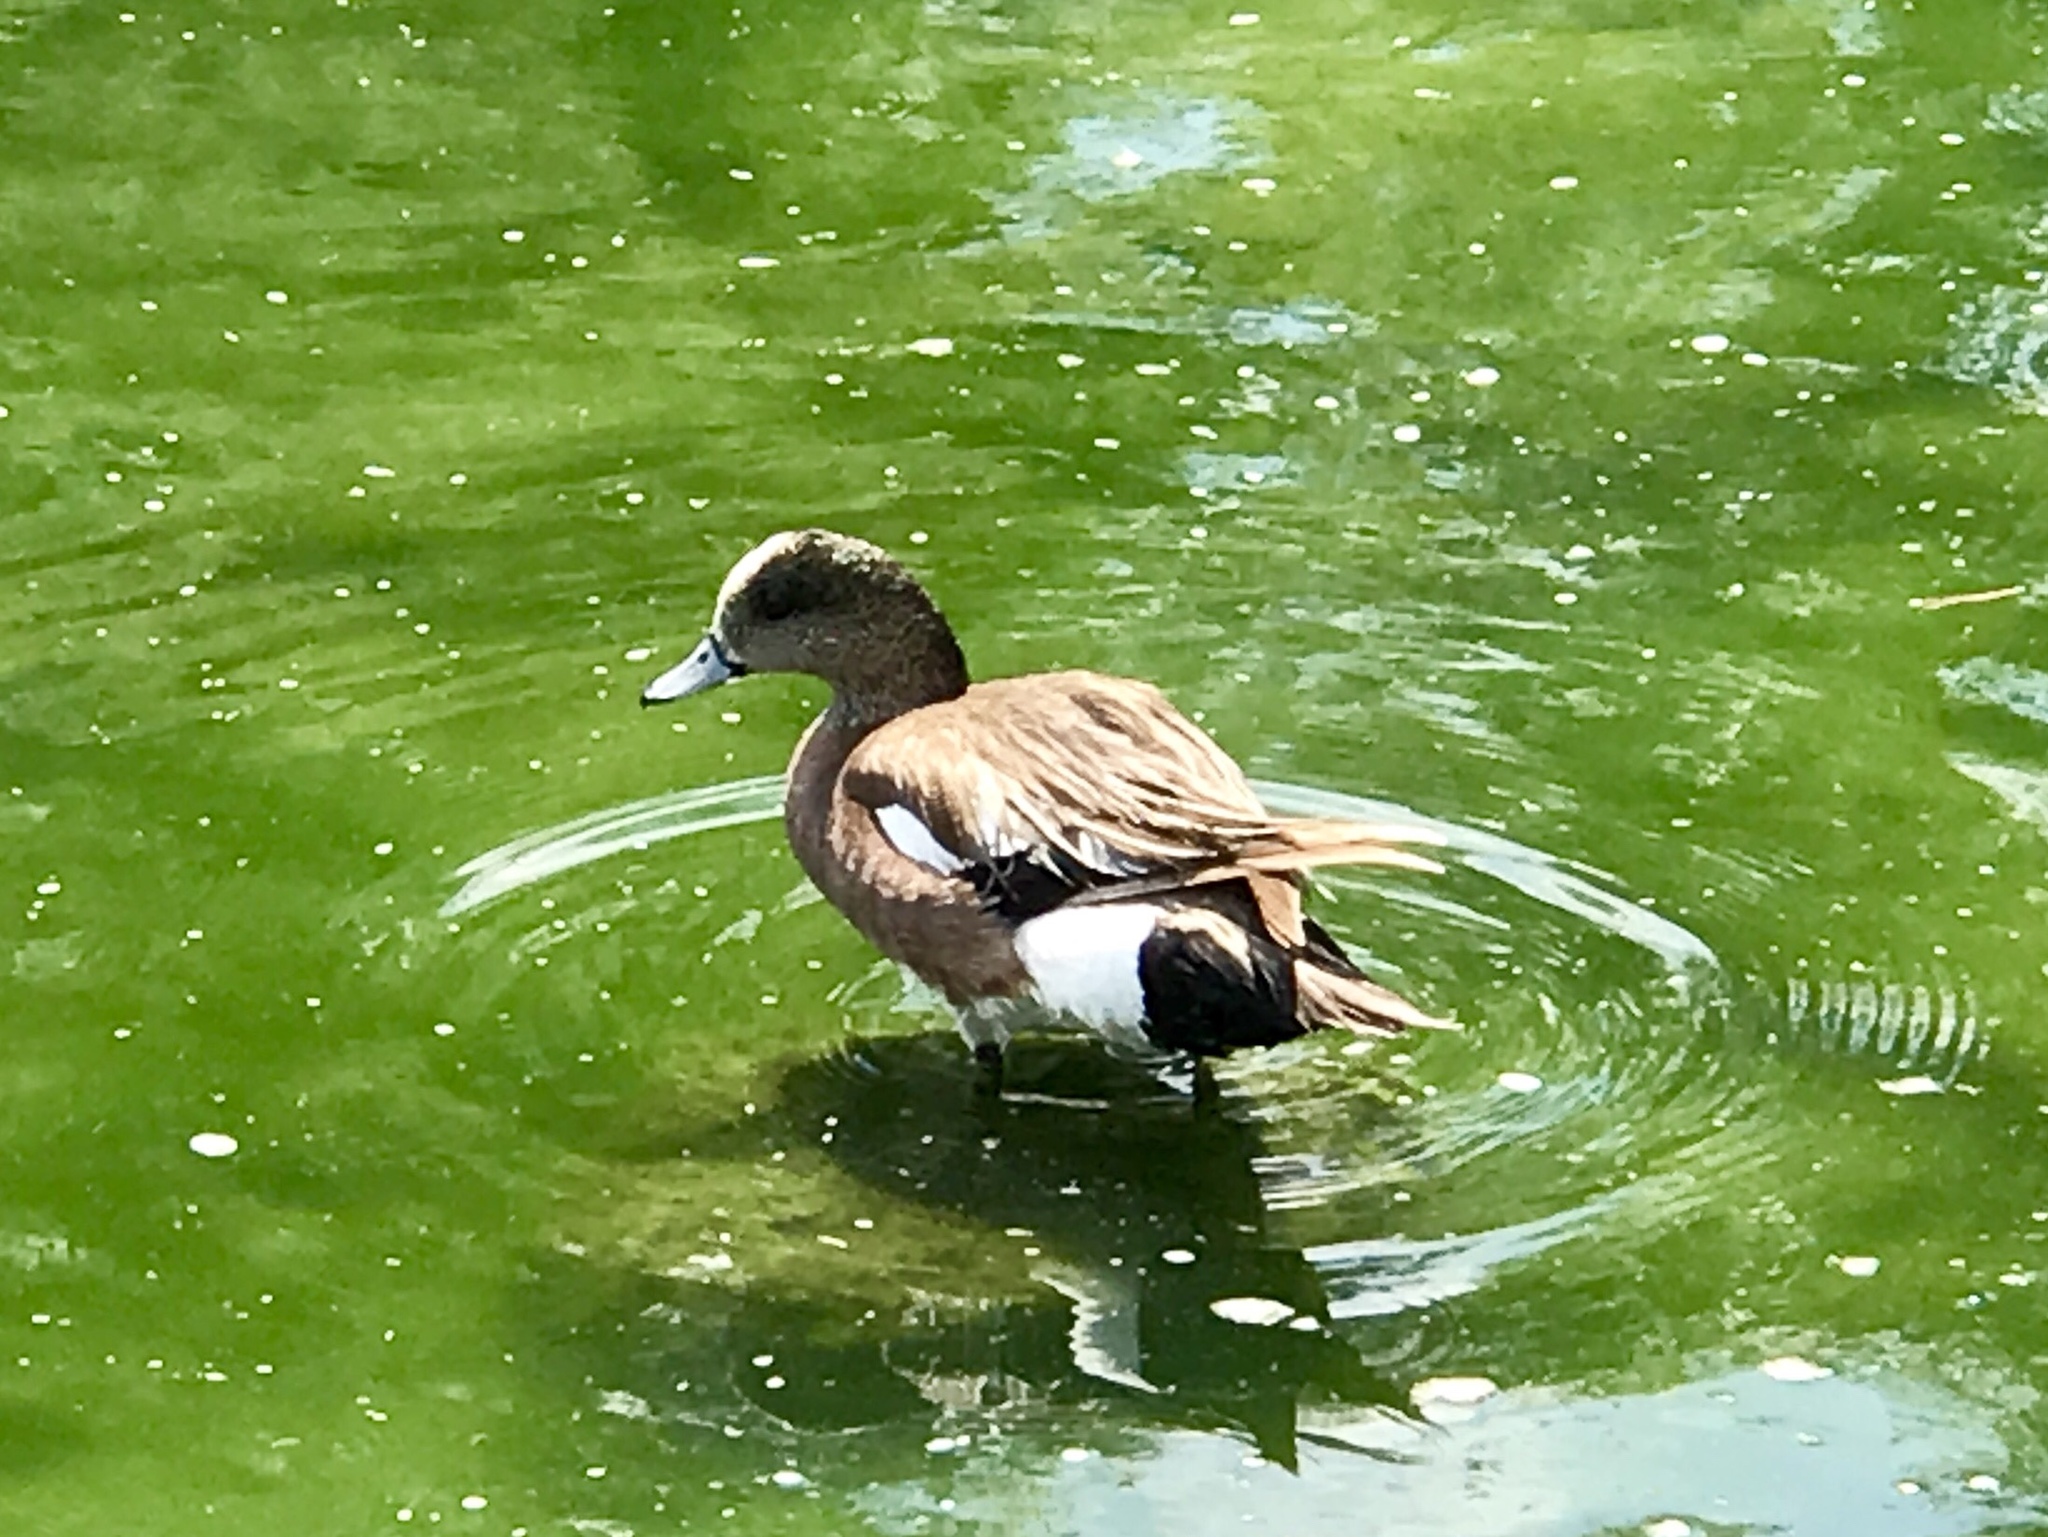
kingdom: Animalia
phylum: Chordata
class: Aves
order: Anseriformes
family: Anatidae
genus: Mareca
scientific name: Mareca americana
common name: American wigeon
